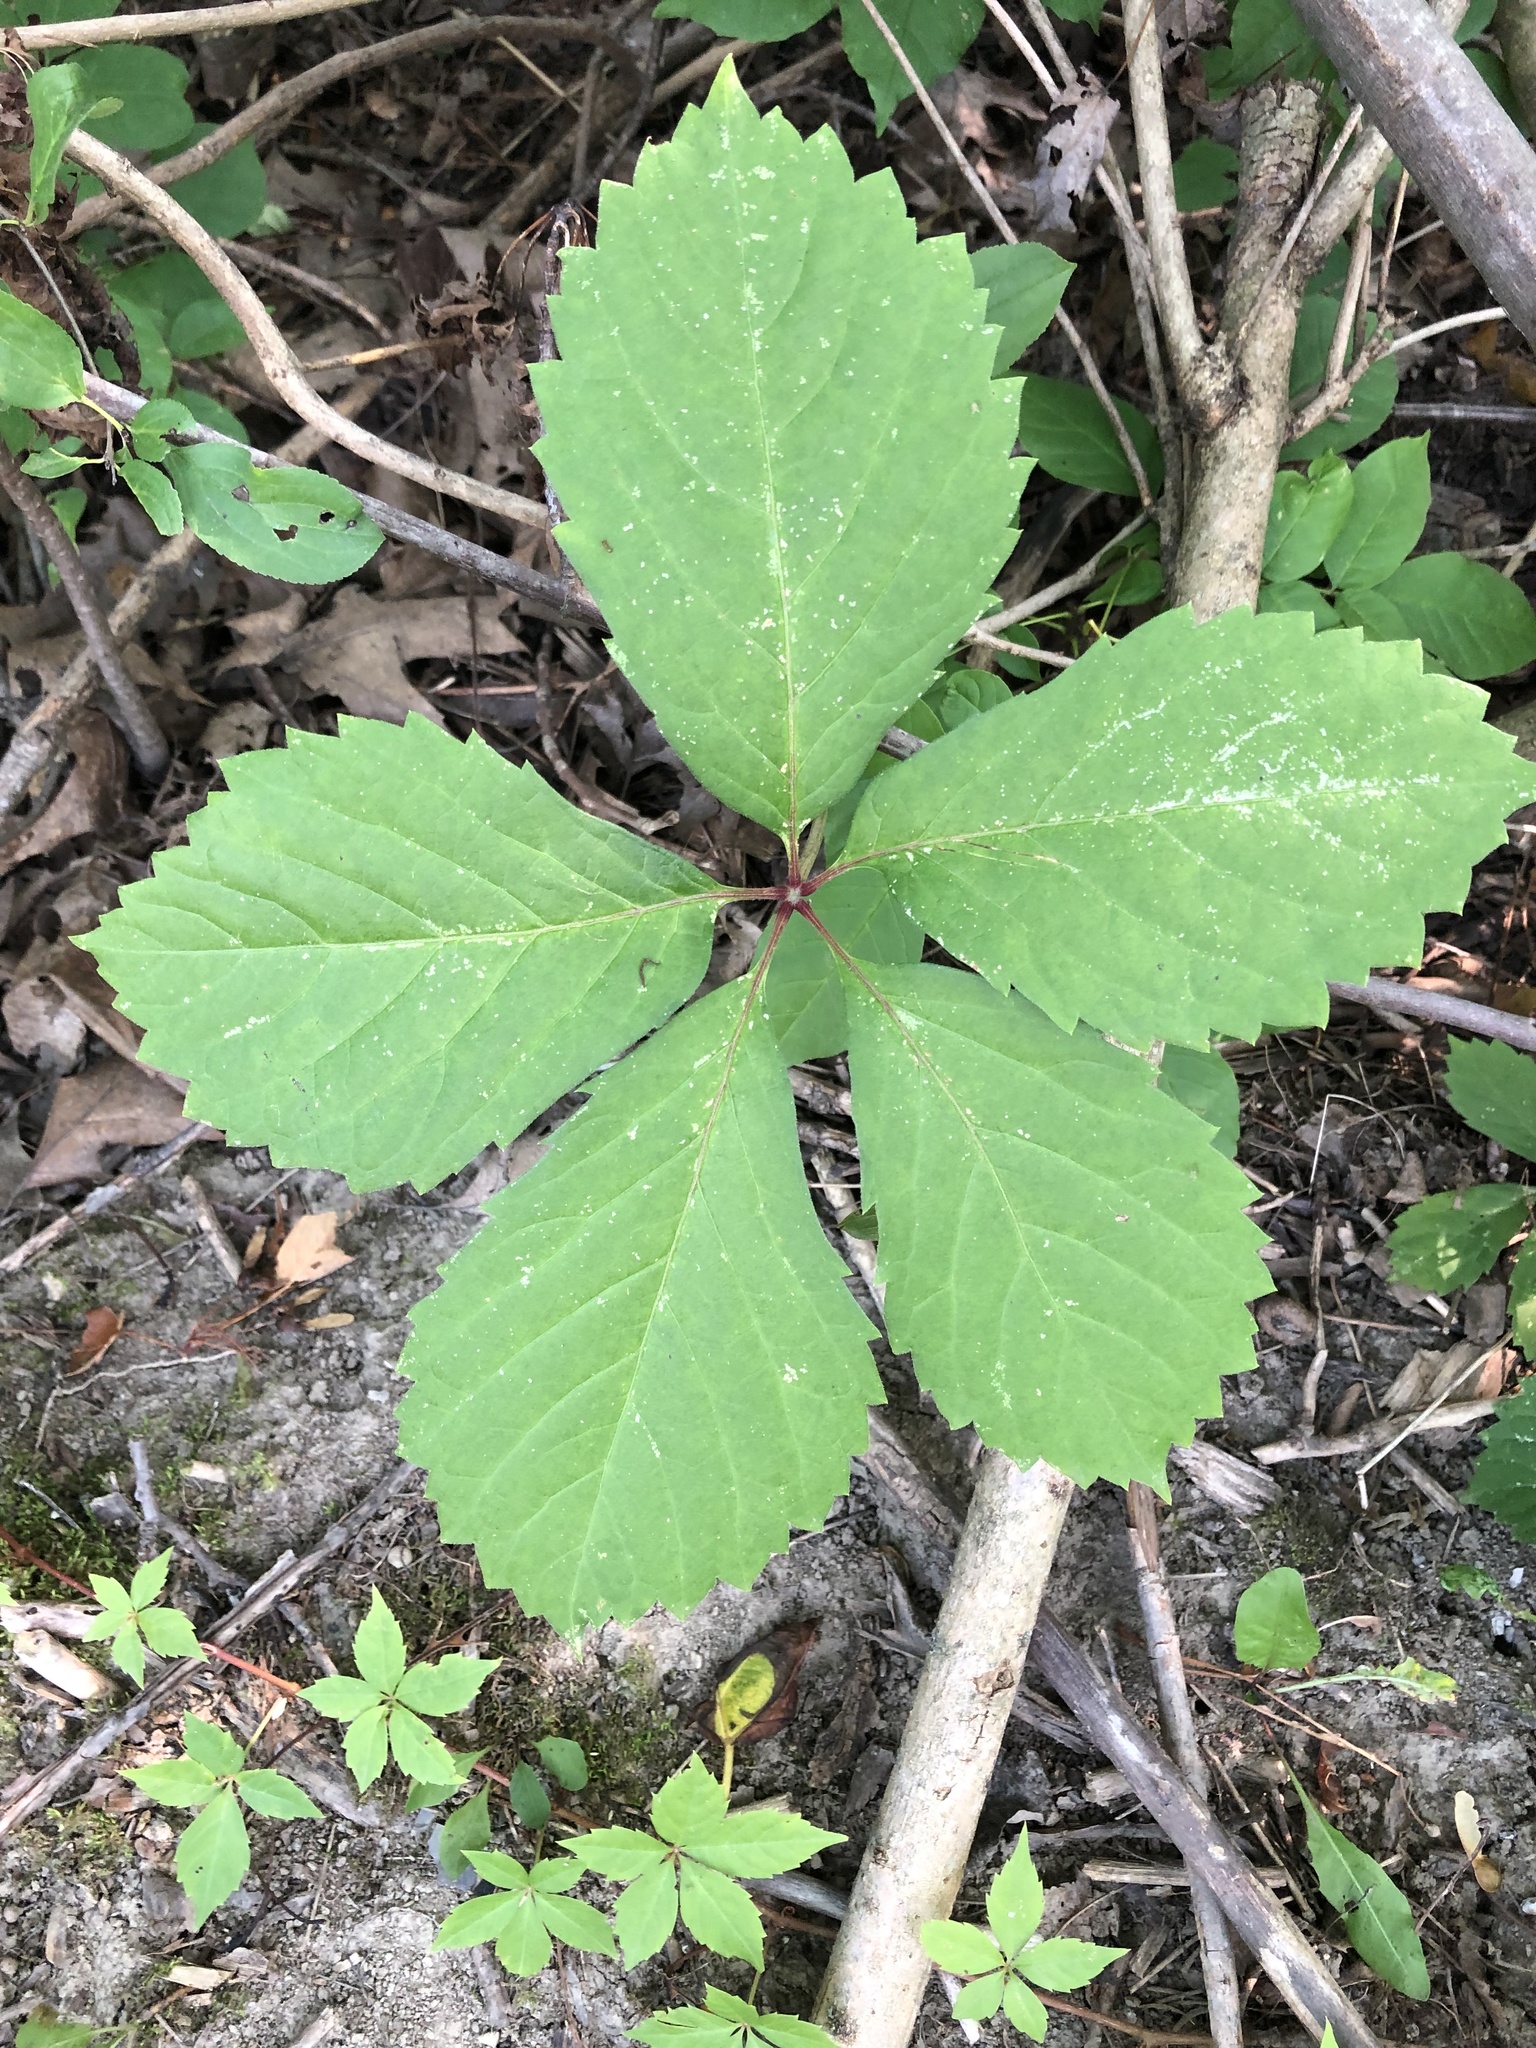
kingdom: Plantae
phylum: Tracheophyta
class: Magnoliopsida
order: Vitales
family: Vitaceae
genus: Parthenocissus
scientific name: Parthenocissus inserta
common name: False virginia-creeper
